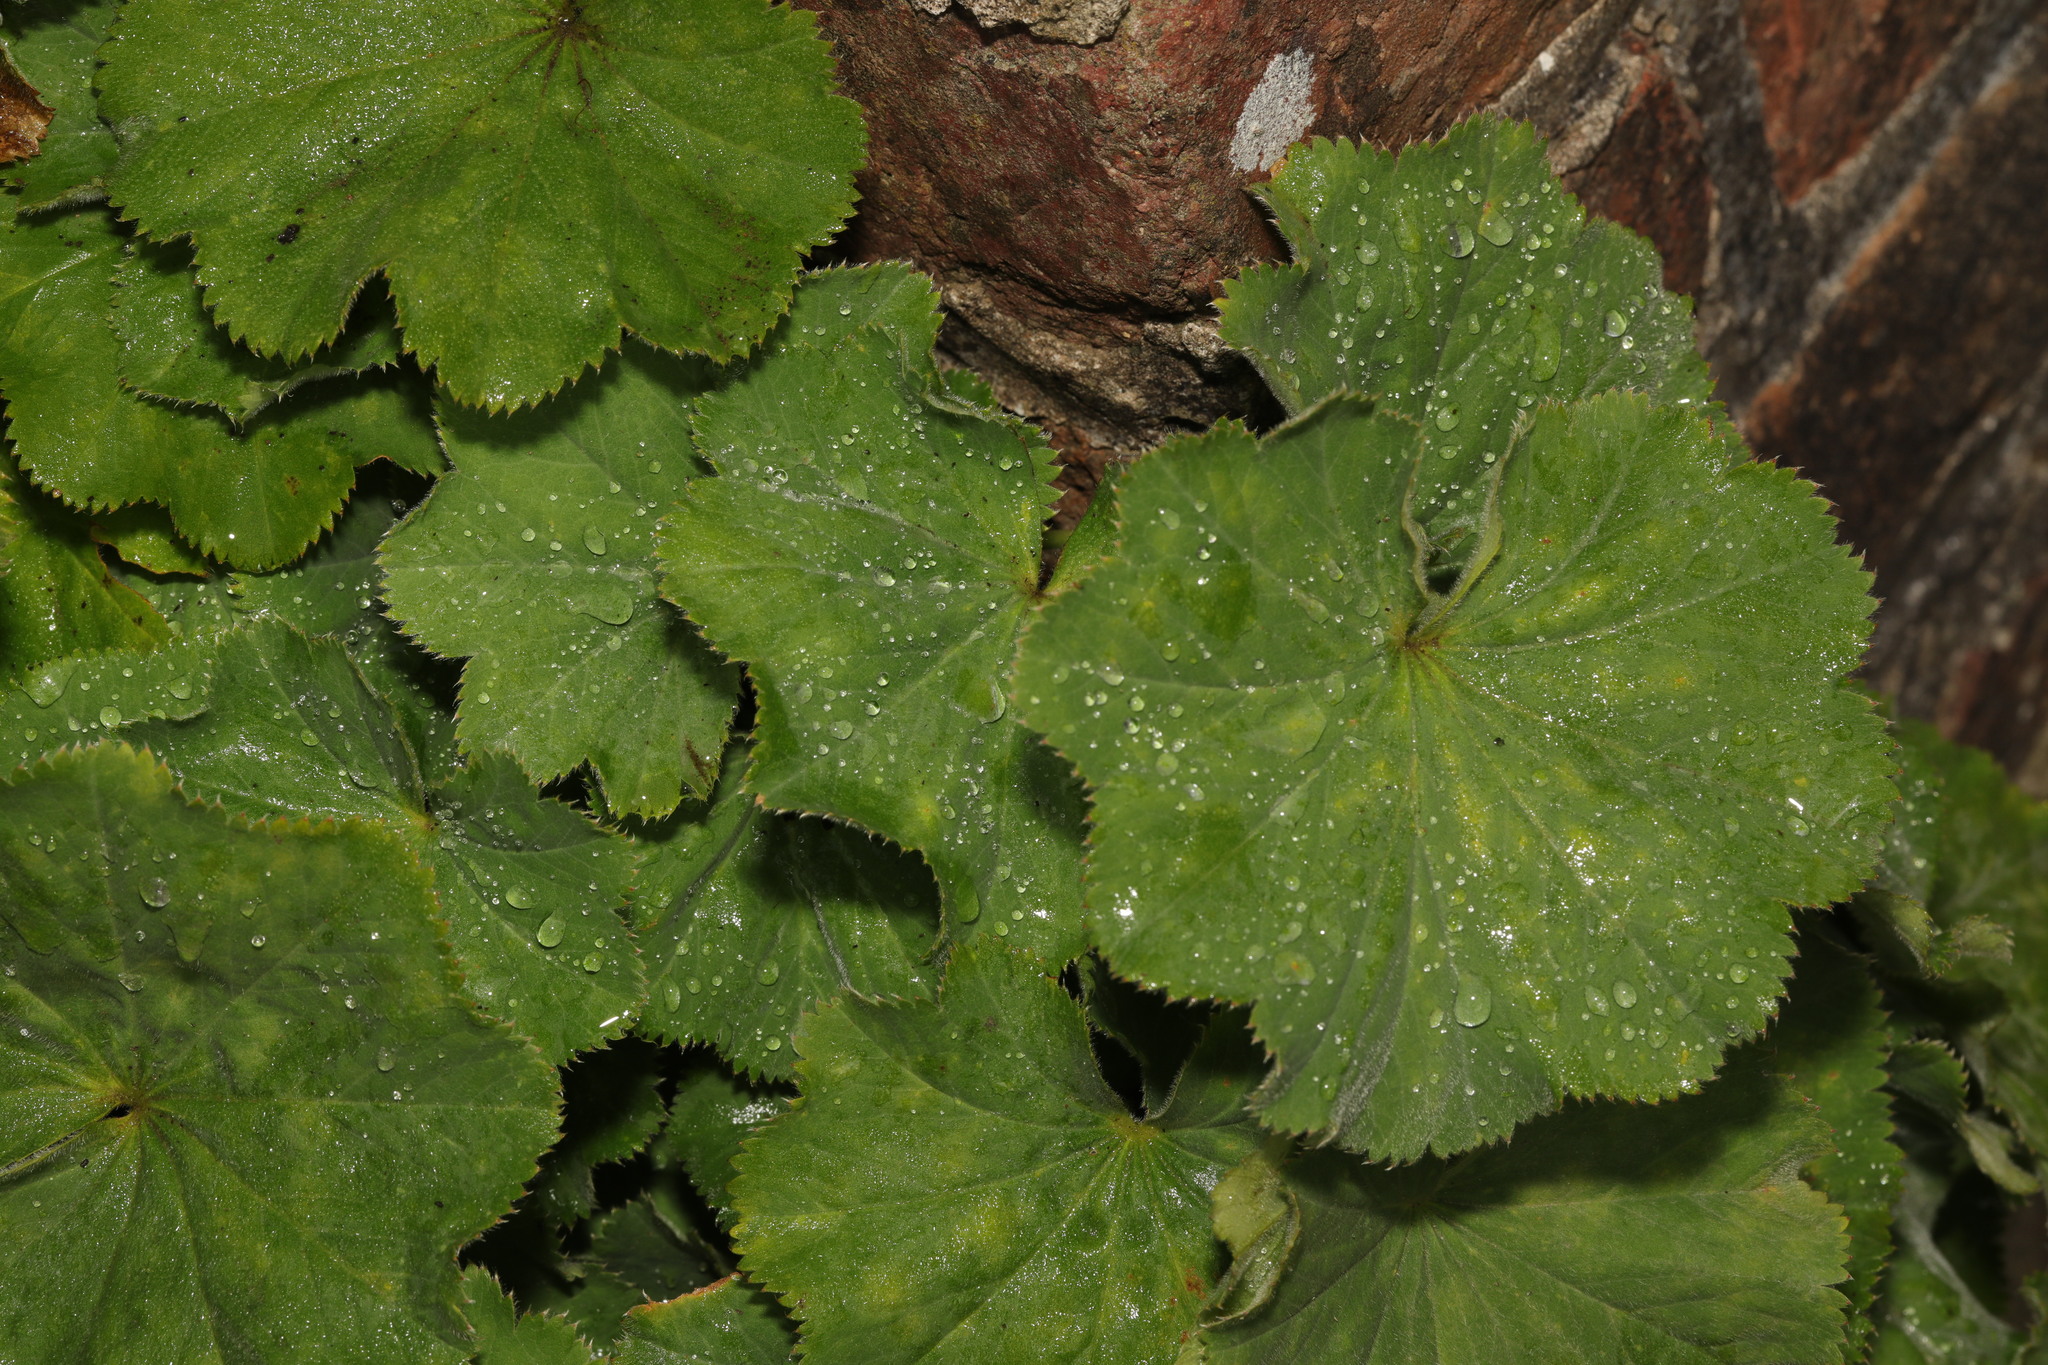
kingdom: Plantae
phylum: Tracheophyta
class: Magnoliopsida
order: Rosales
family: Rosaceae
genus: Alchemilla
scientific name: Alchemilla mollis
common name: Lady's-mantle
